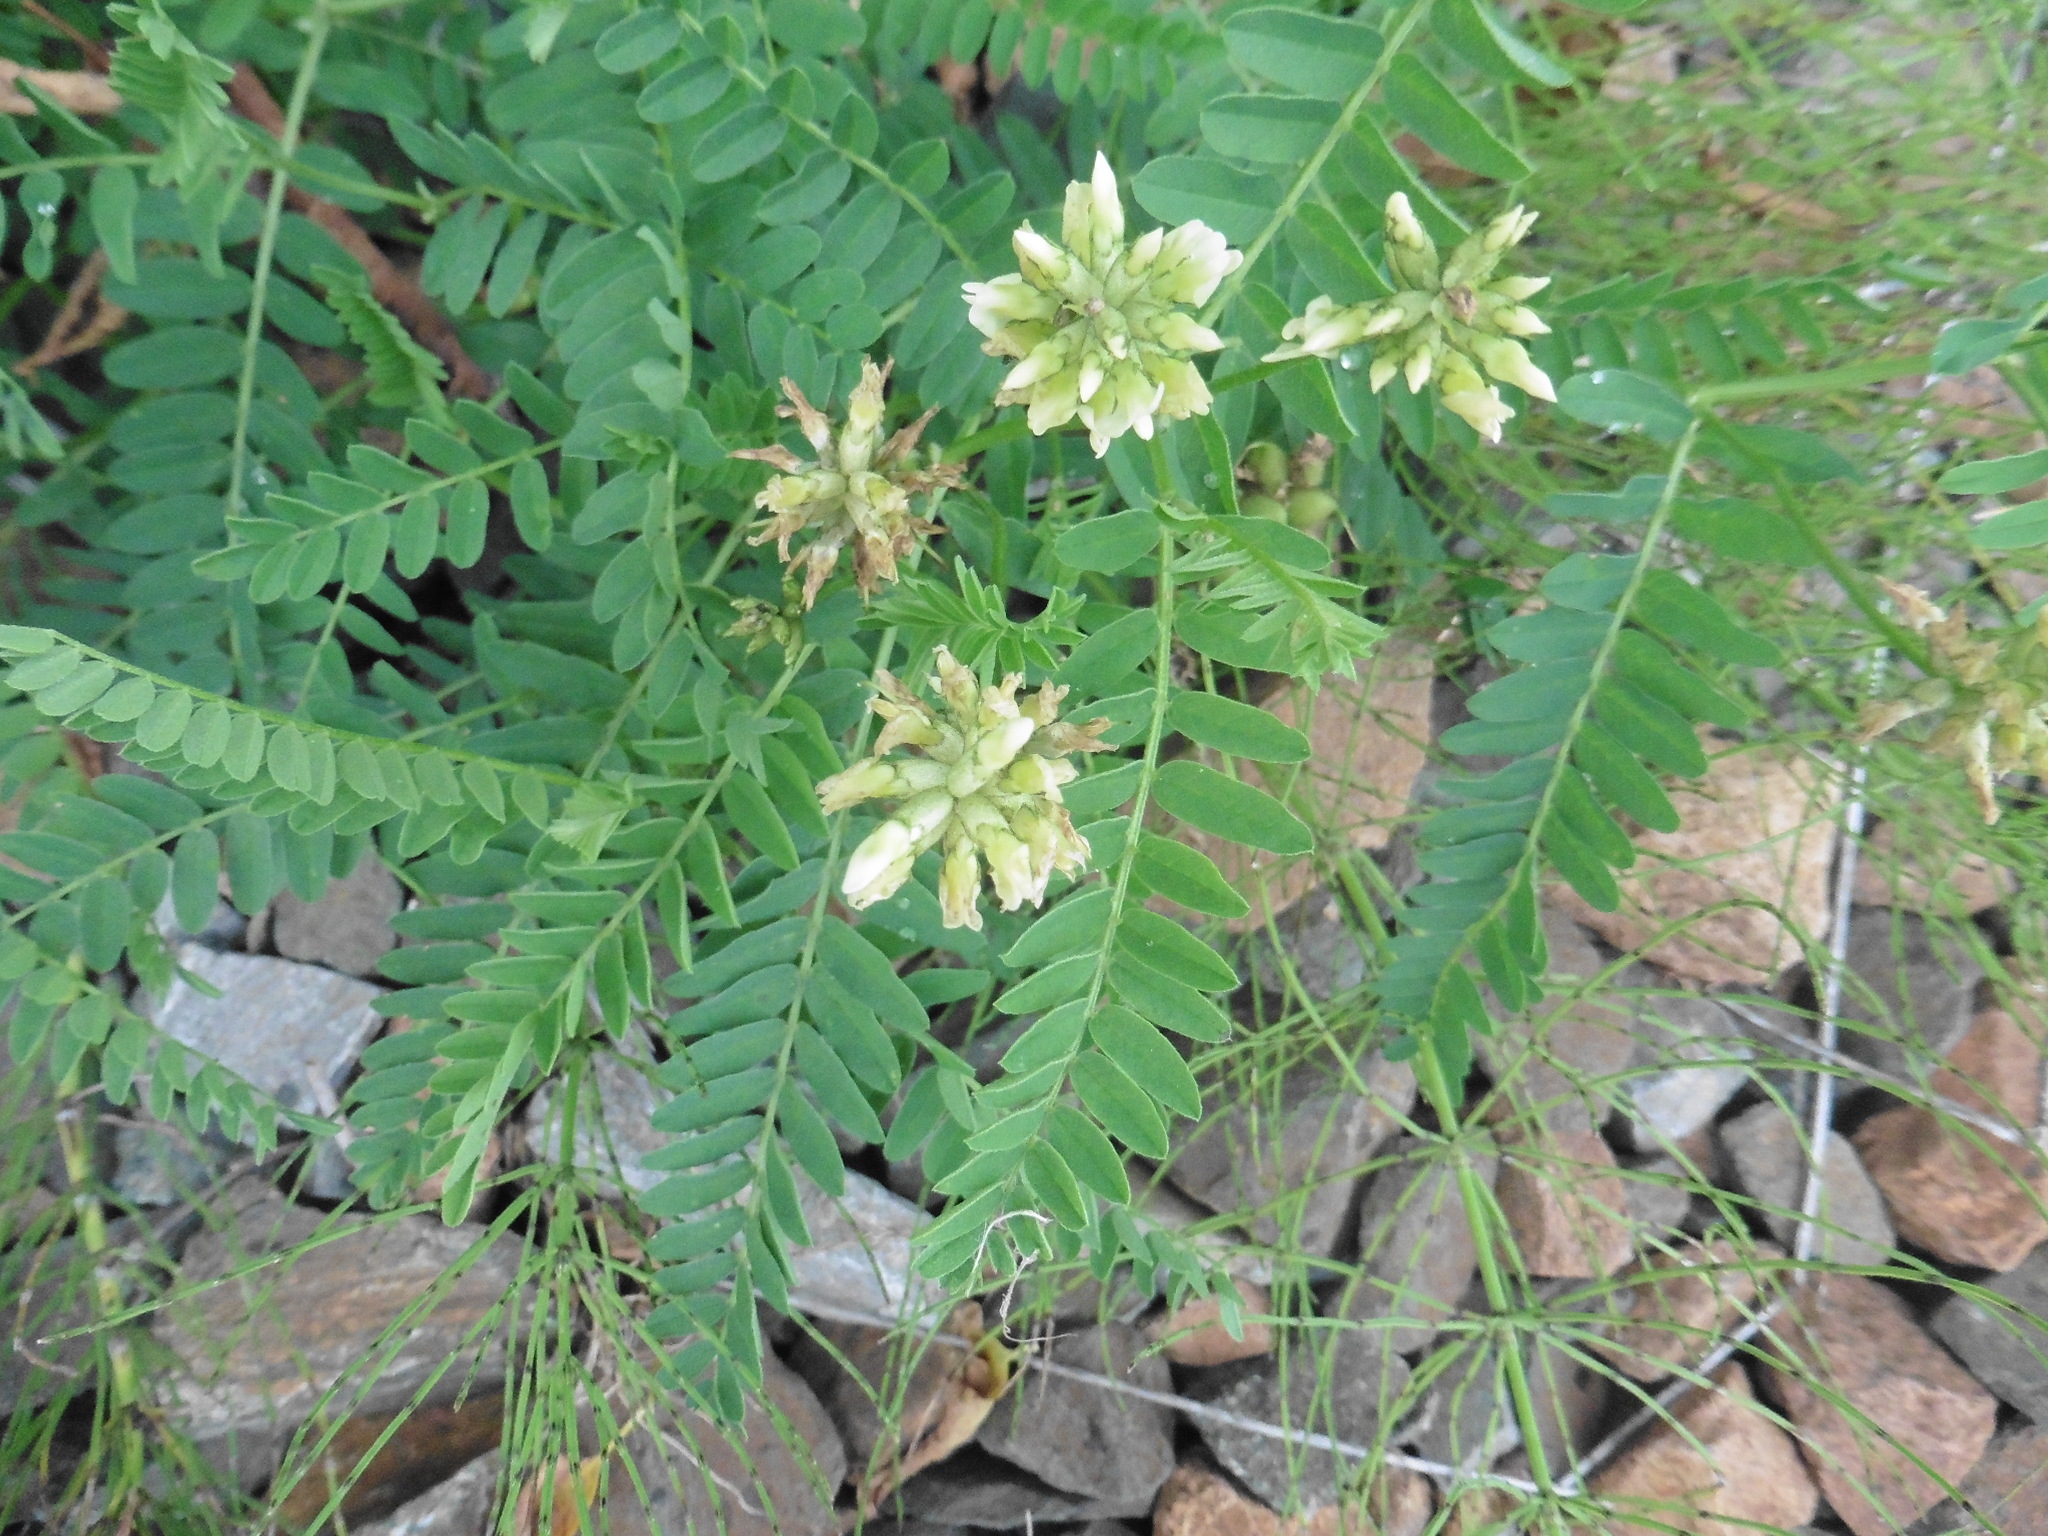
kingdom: Plantae
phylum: Tracheophyta
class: Magnoliopsida
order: Fabales
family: Fabaceae
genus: Astragalus
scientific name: Astragalus cicer
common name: Chick-pea milk-vetch
